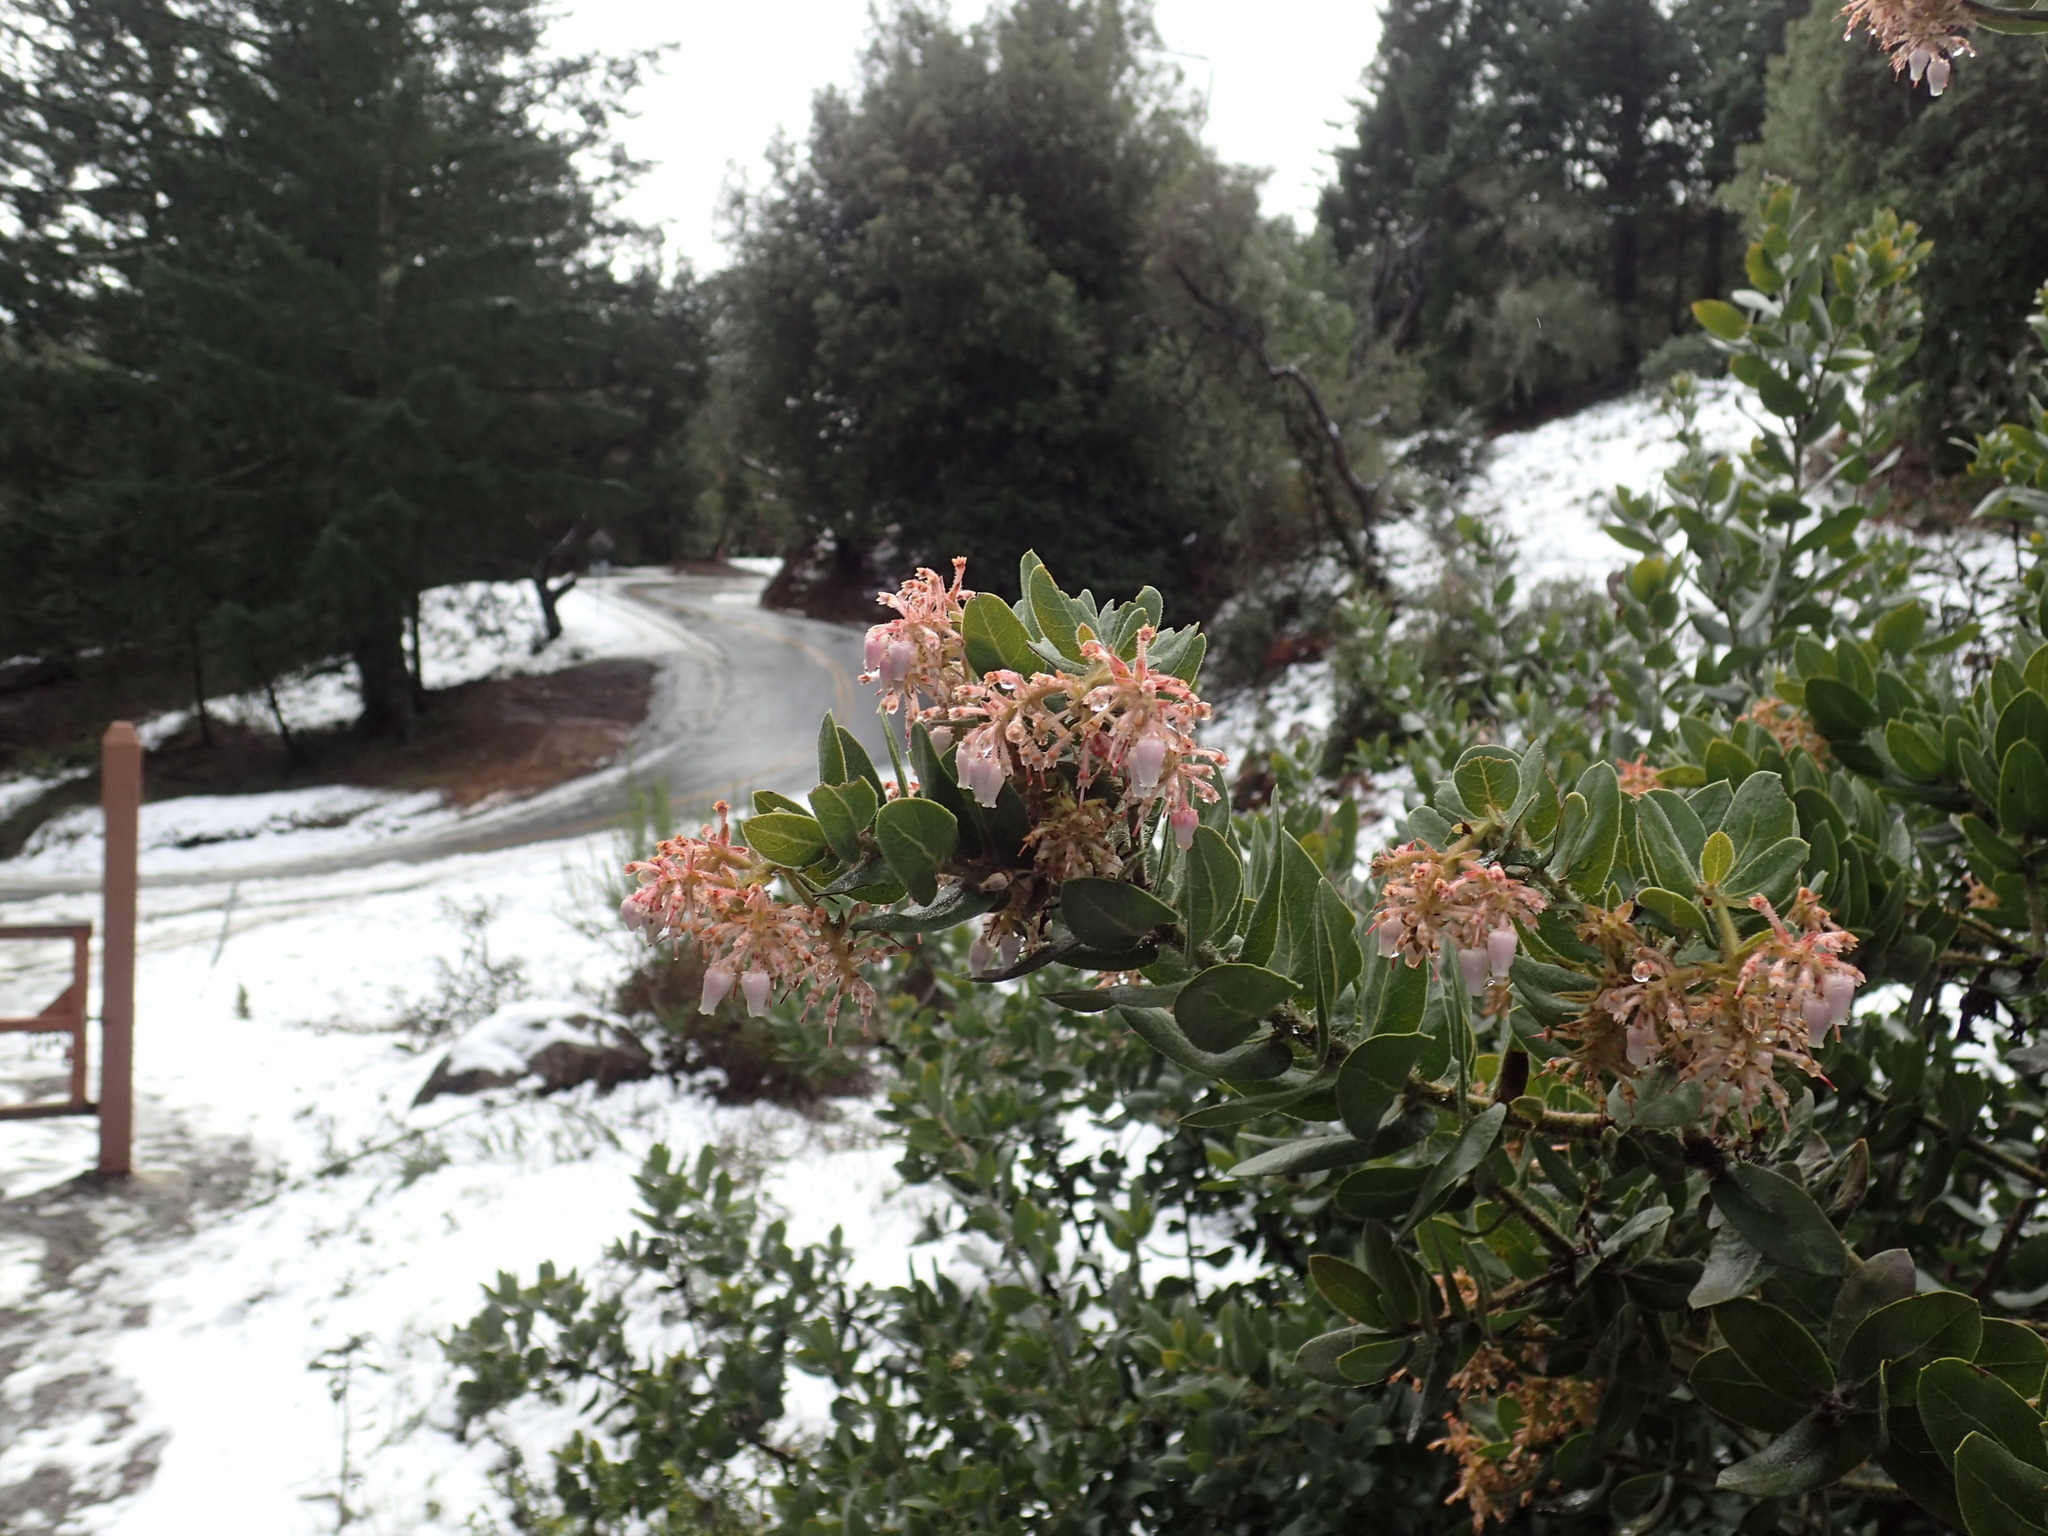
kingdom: Plantae
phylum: Tracheophyta
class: Magnoliopsida
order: Ericales
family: Ericaceae
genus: Arctostaphylos
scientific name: Arctostaphylos regismontana
